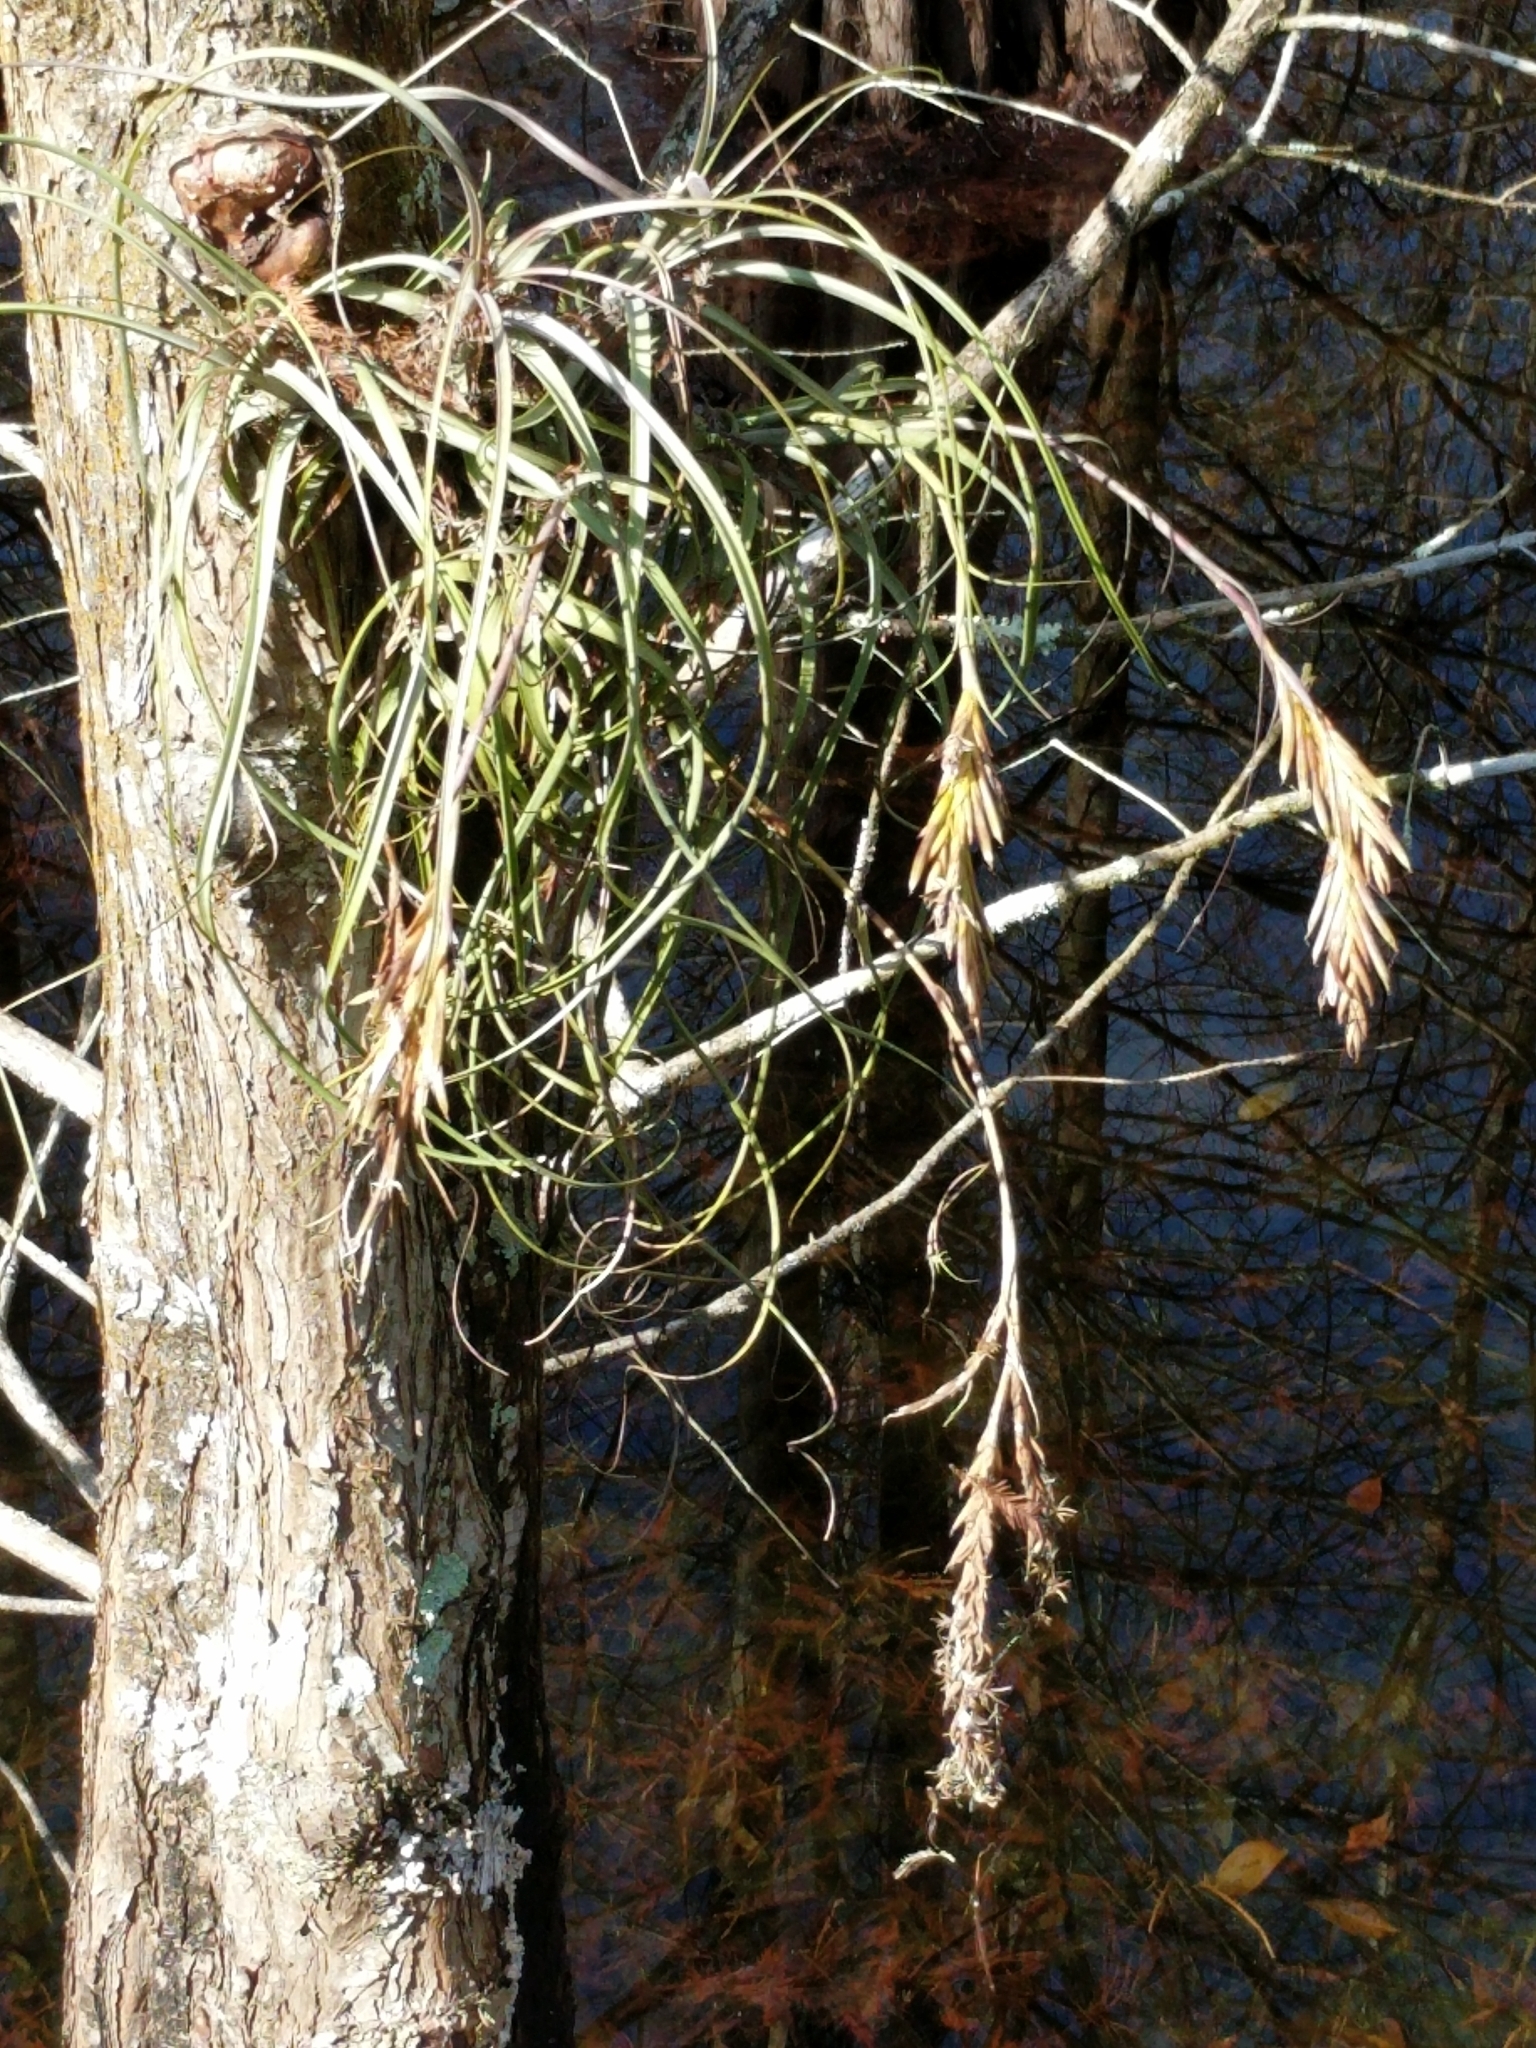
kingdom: Plantae
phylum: Tracheophyta
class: Liliopsida
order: Poales
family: Bromeliaceae
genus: Tillandsia
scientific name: Tillandsia balbisiana
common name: Northern needleleaf
